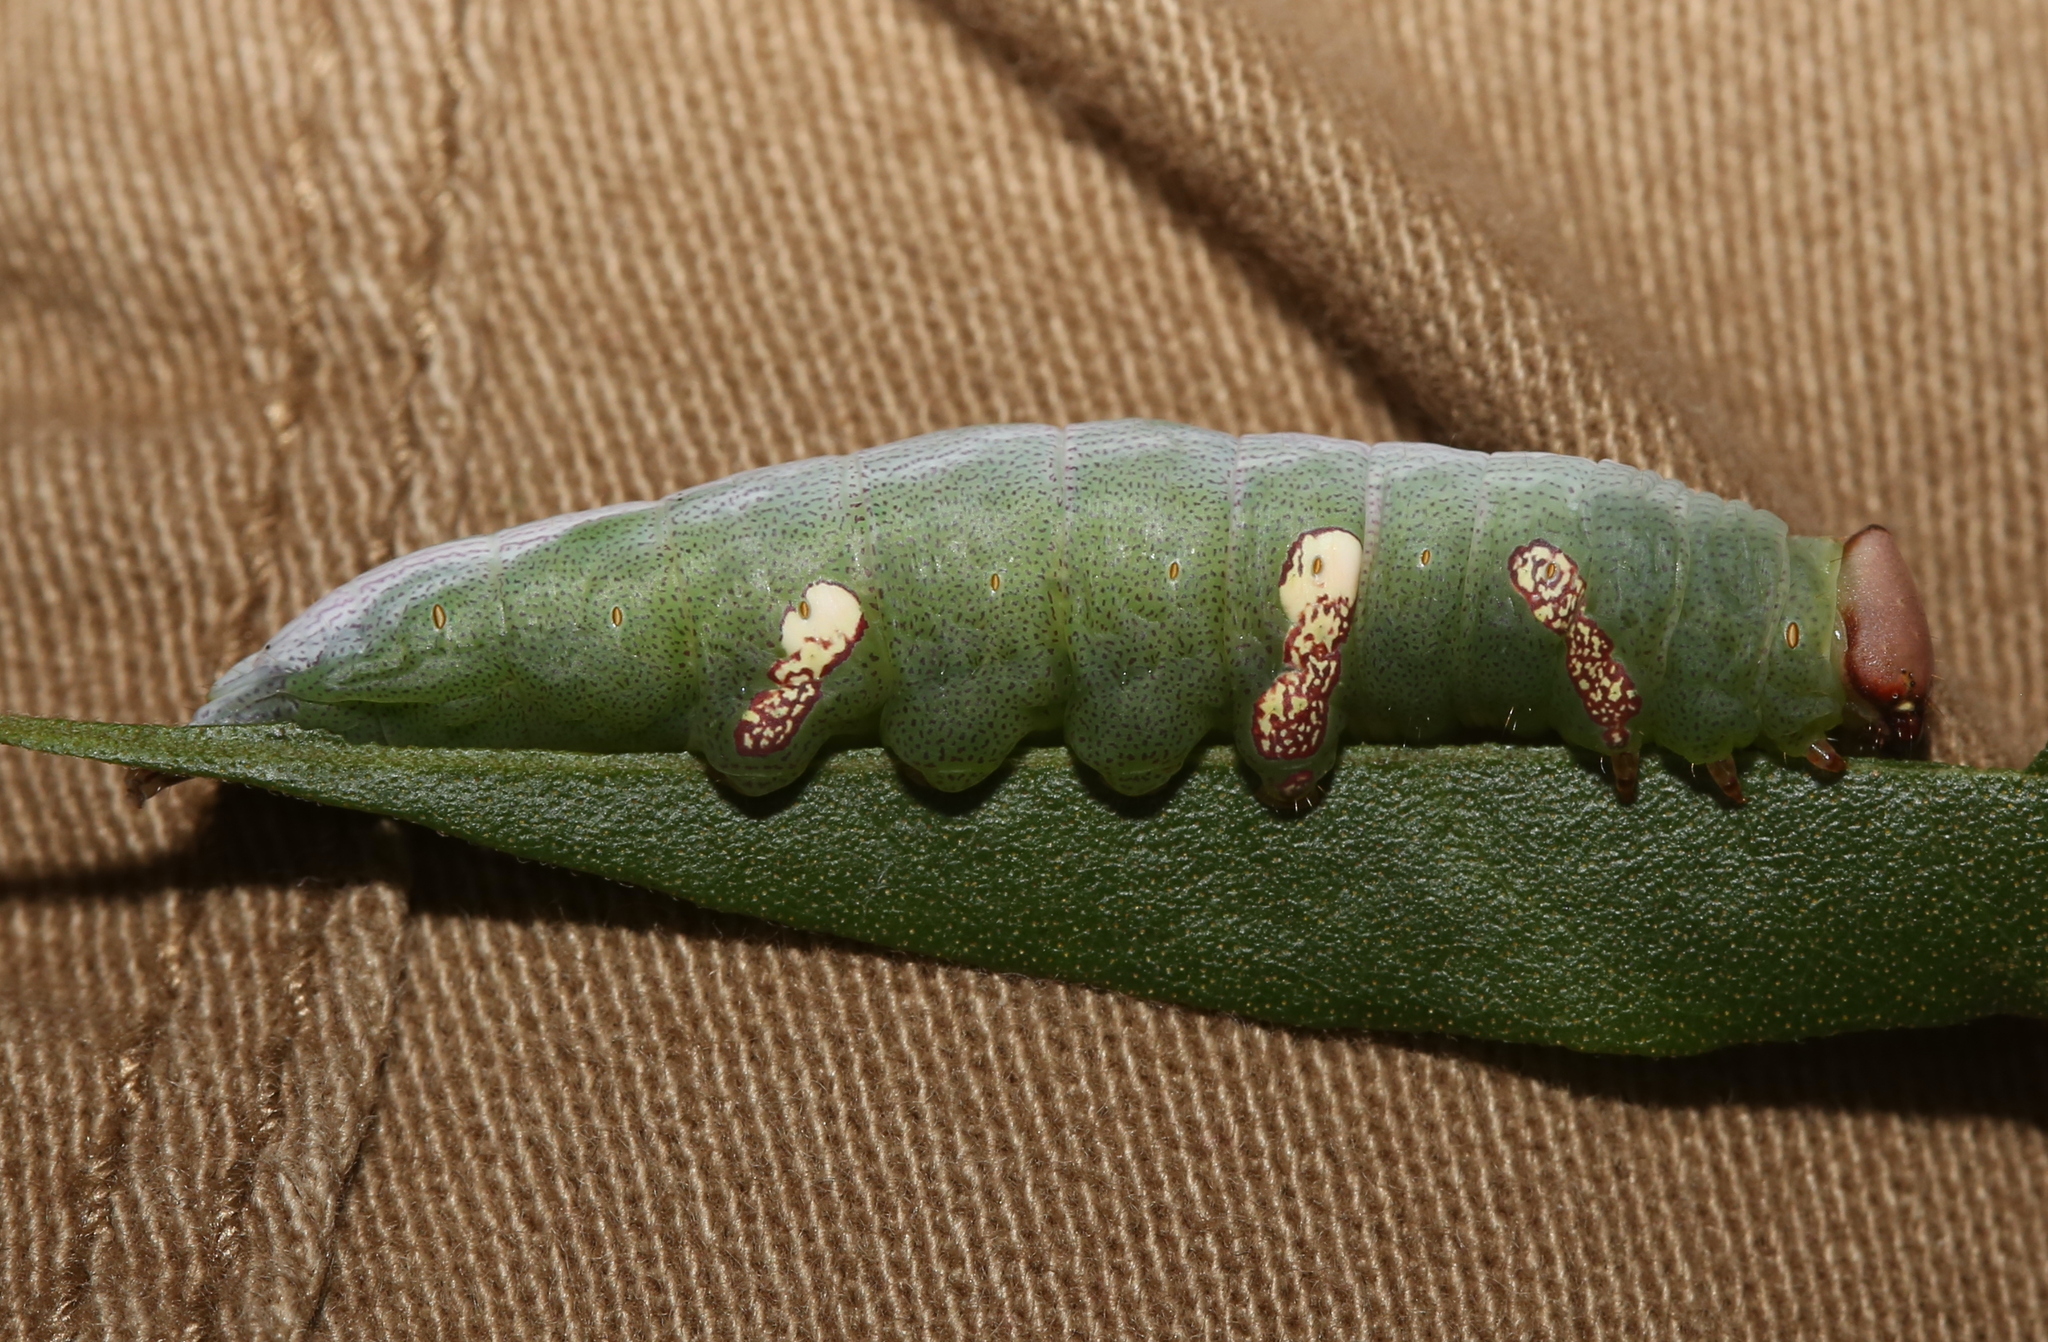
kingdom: Animalia
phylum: Arthropoda
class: Insecta
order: Lepidoptera
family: Notodontidae
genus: Disphragis
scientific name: Disphragis Cecrita biundata
